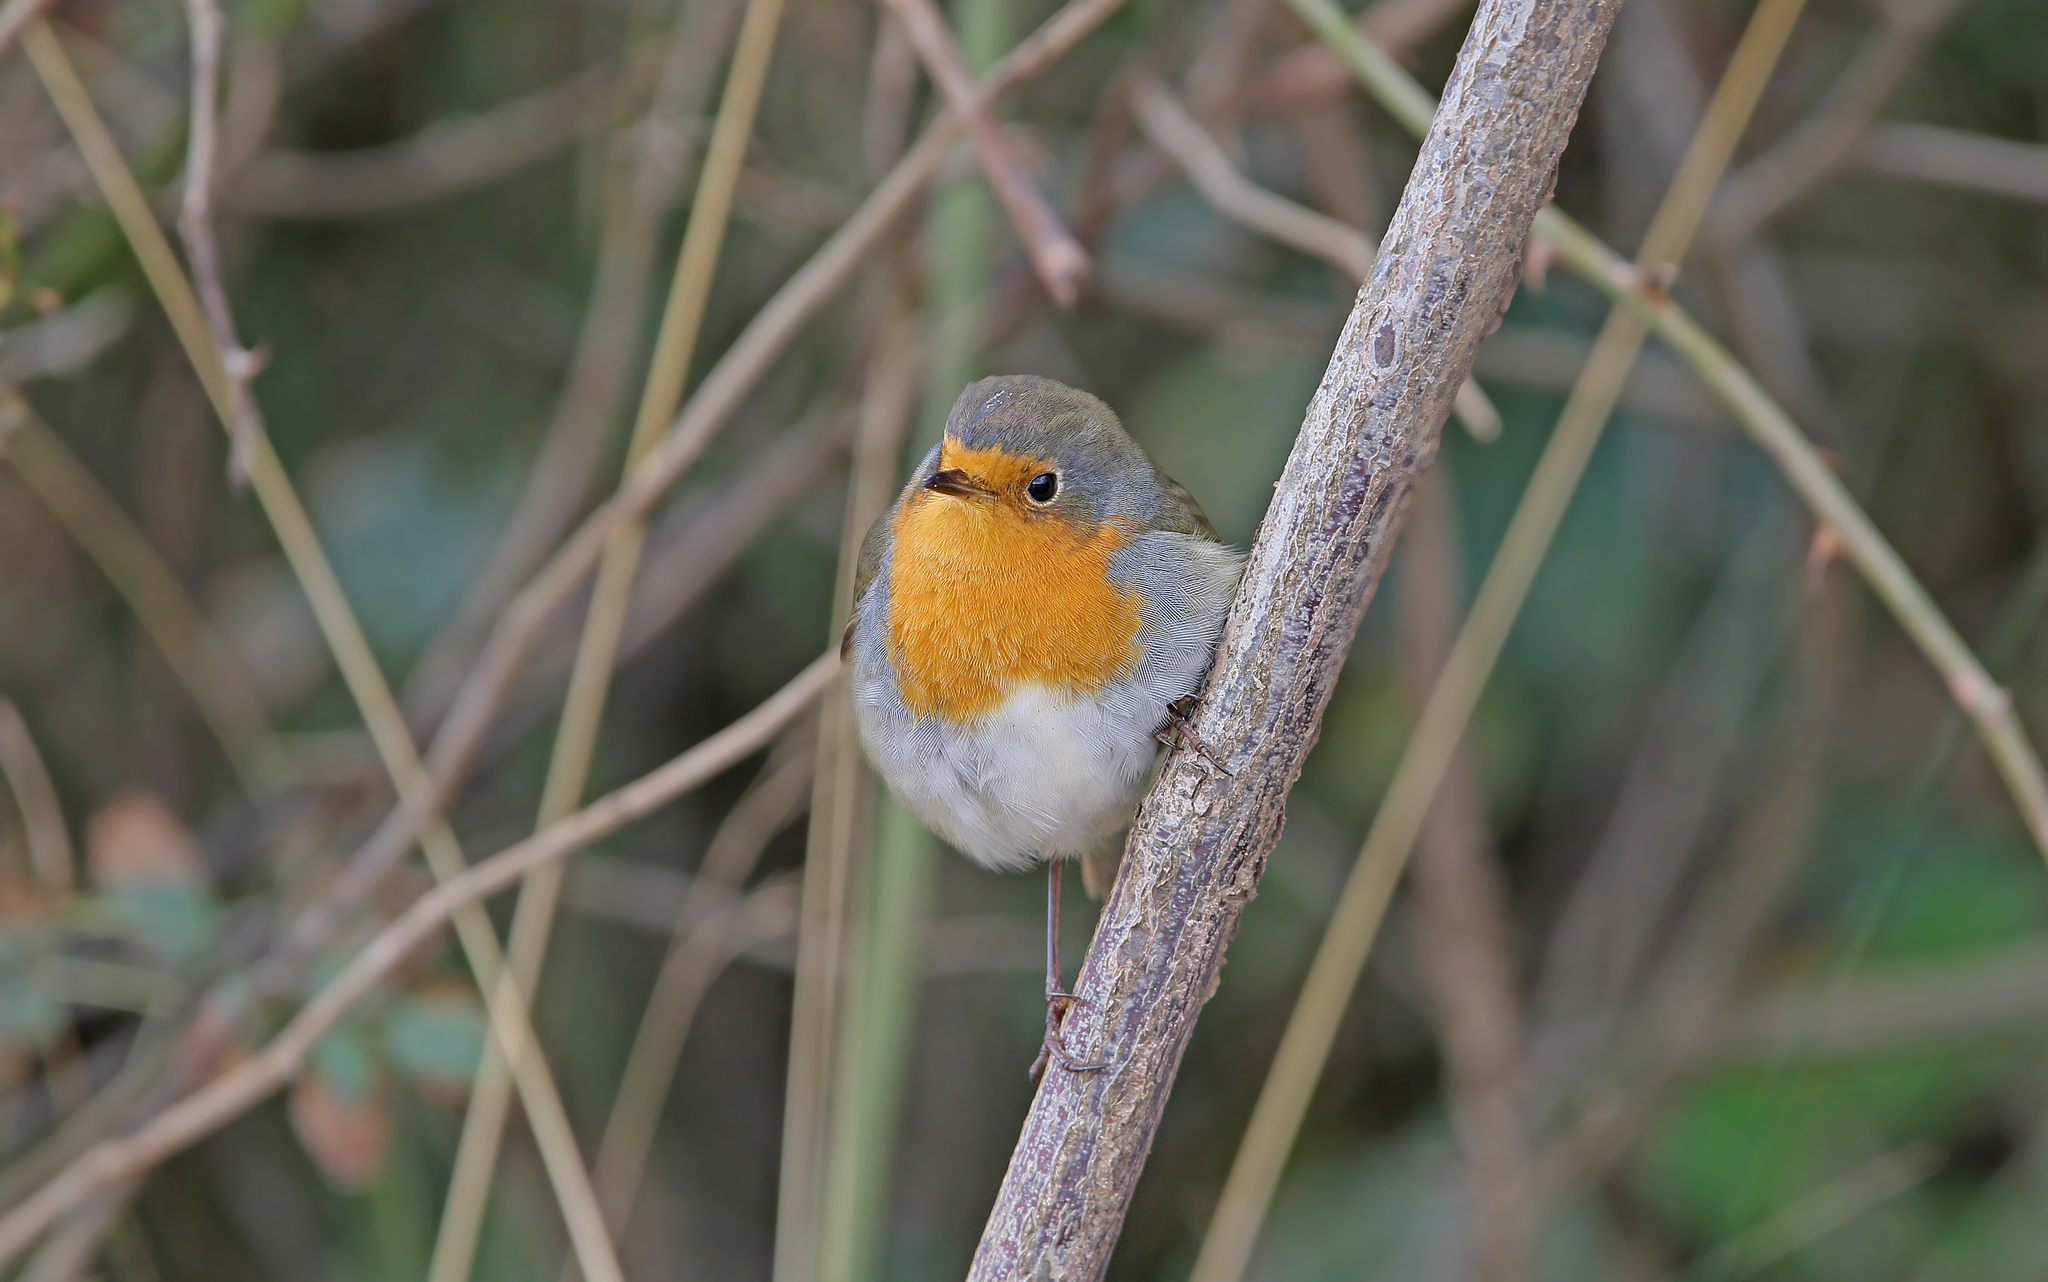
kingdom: Animalia
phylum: Chordata
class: Aves
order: Passeriformes
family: Muscicapidae
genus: Erithacus
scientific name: Erithacus rubecula
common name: European robin
